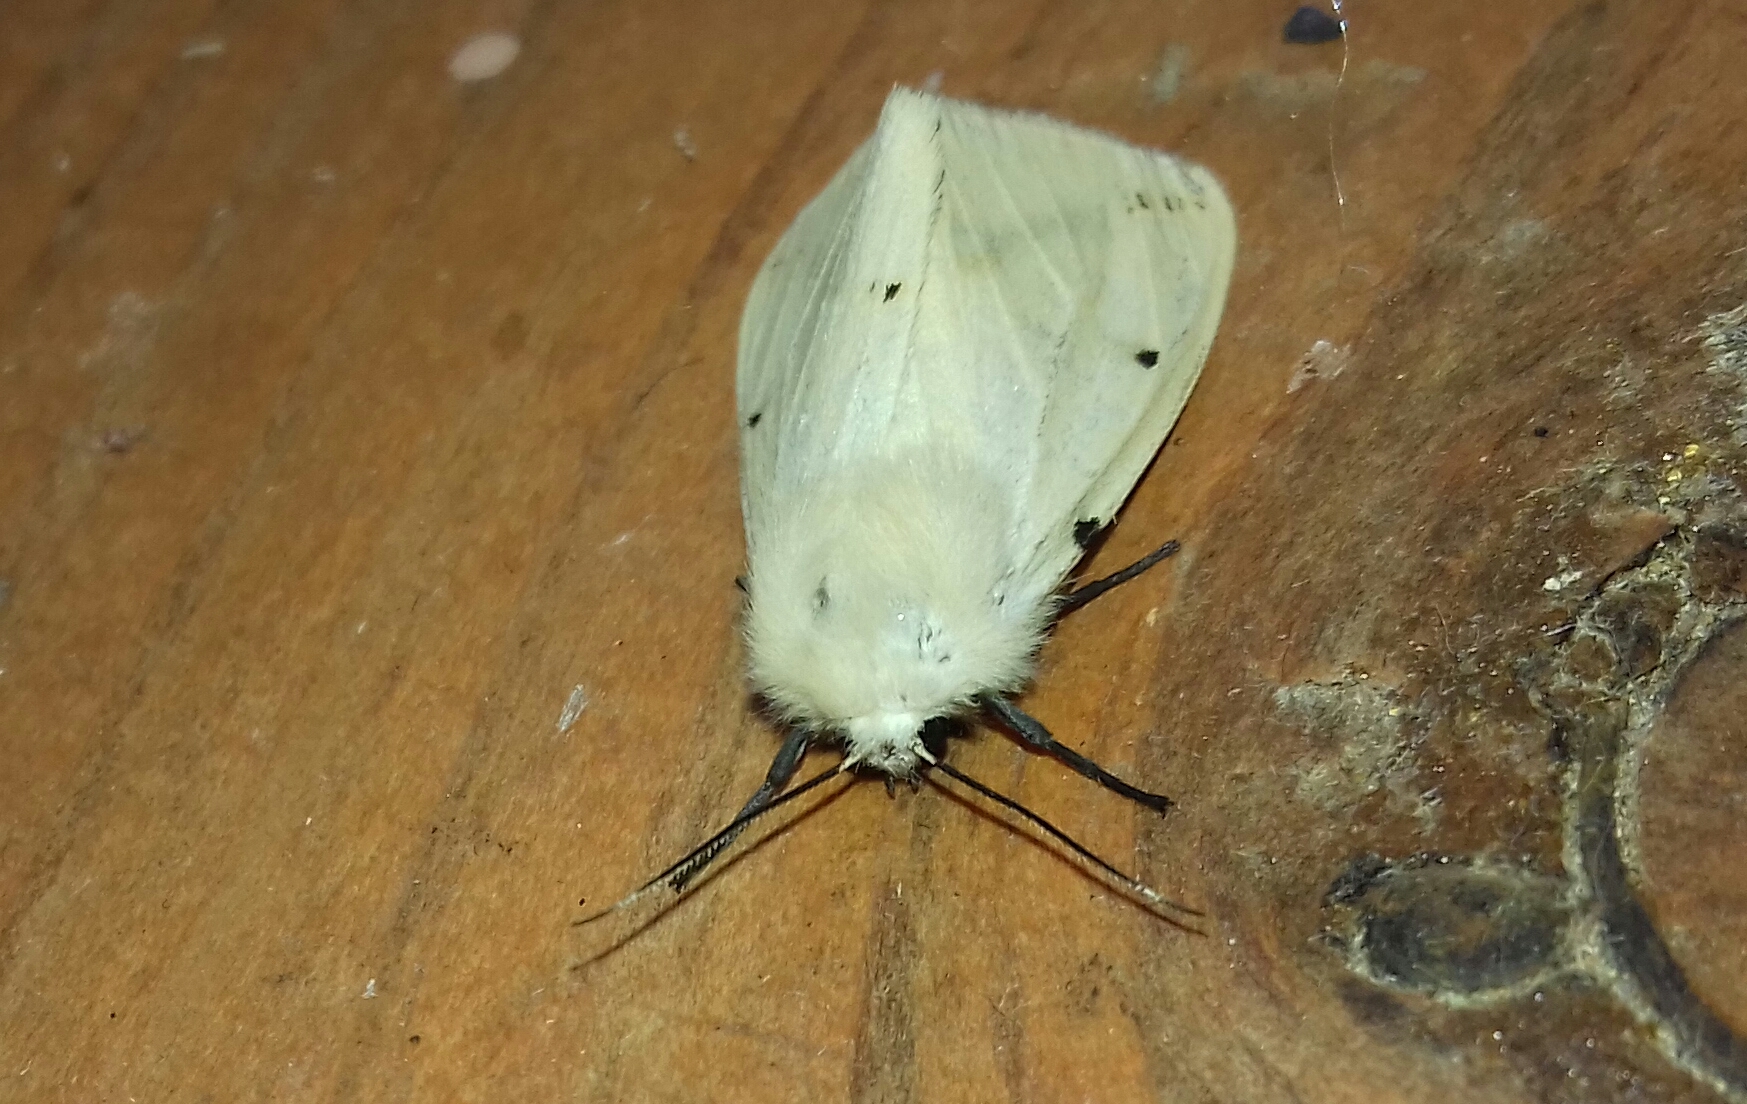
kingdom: Animalia
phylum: Arthropoda
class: Insecta
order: Lepidoptera
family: Erebidae
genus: Spilarctia
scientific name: Spilarctia lutea
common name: Buff ermine
